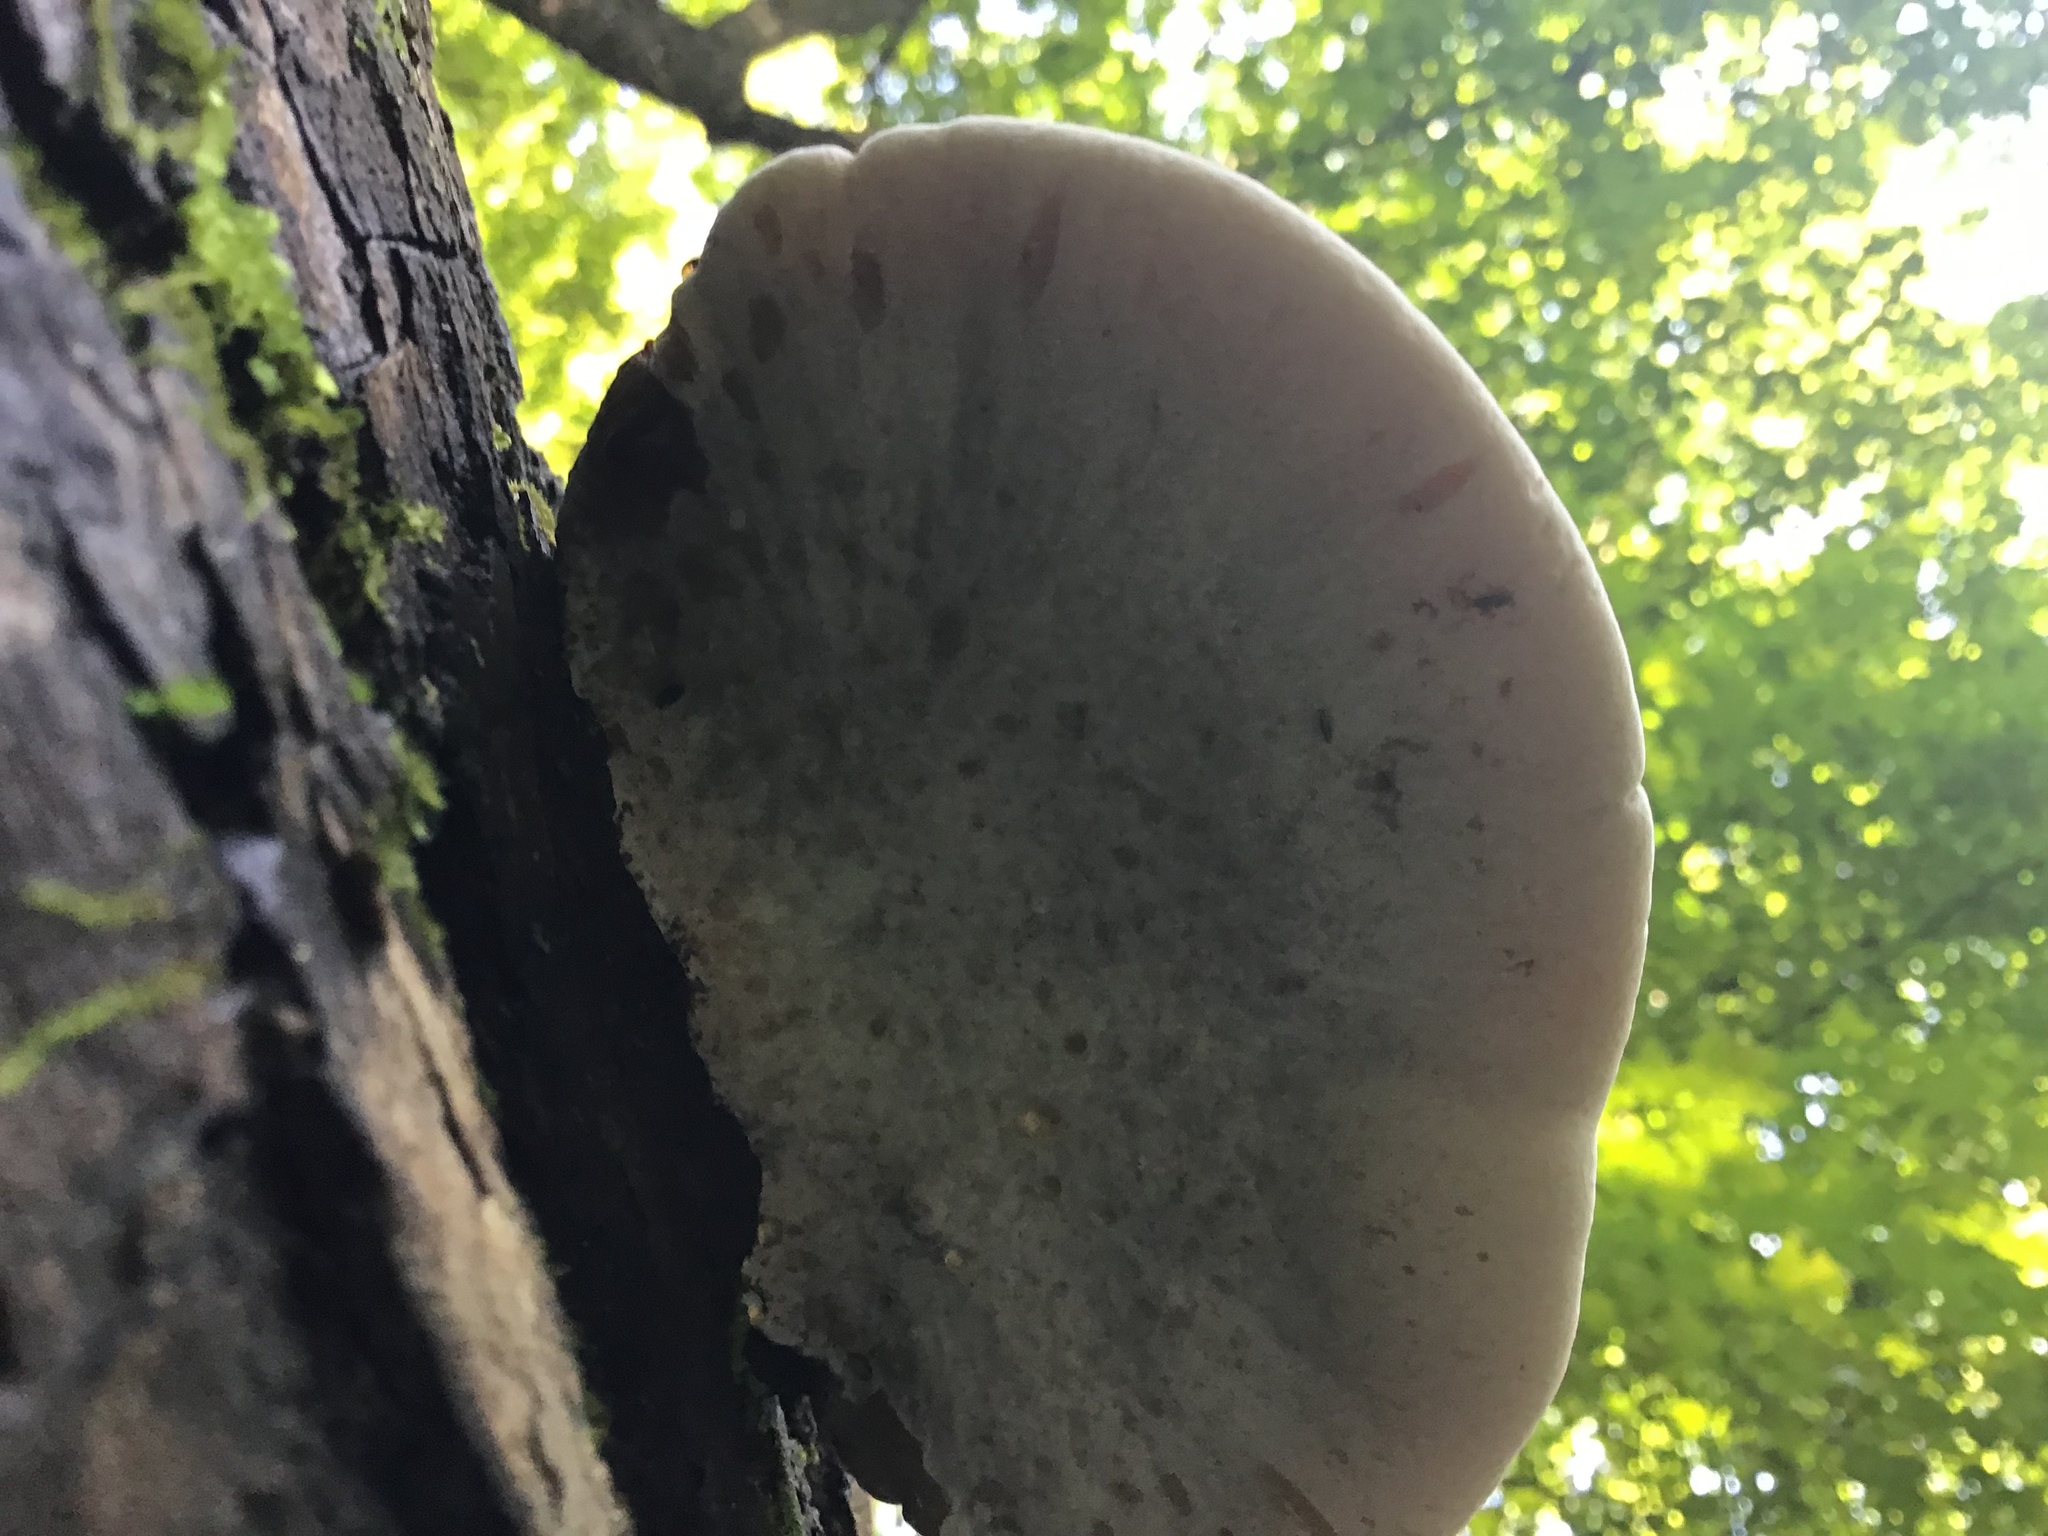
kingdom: Fungi
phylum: Basidiomycota
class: Agaricomycetes
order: Polyporales
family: Ischnodermataceae
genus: Ischnoderma
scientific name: Ischnoderma resinosum
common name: Resinous polypore
